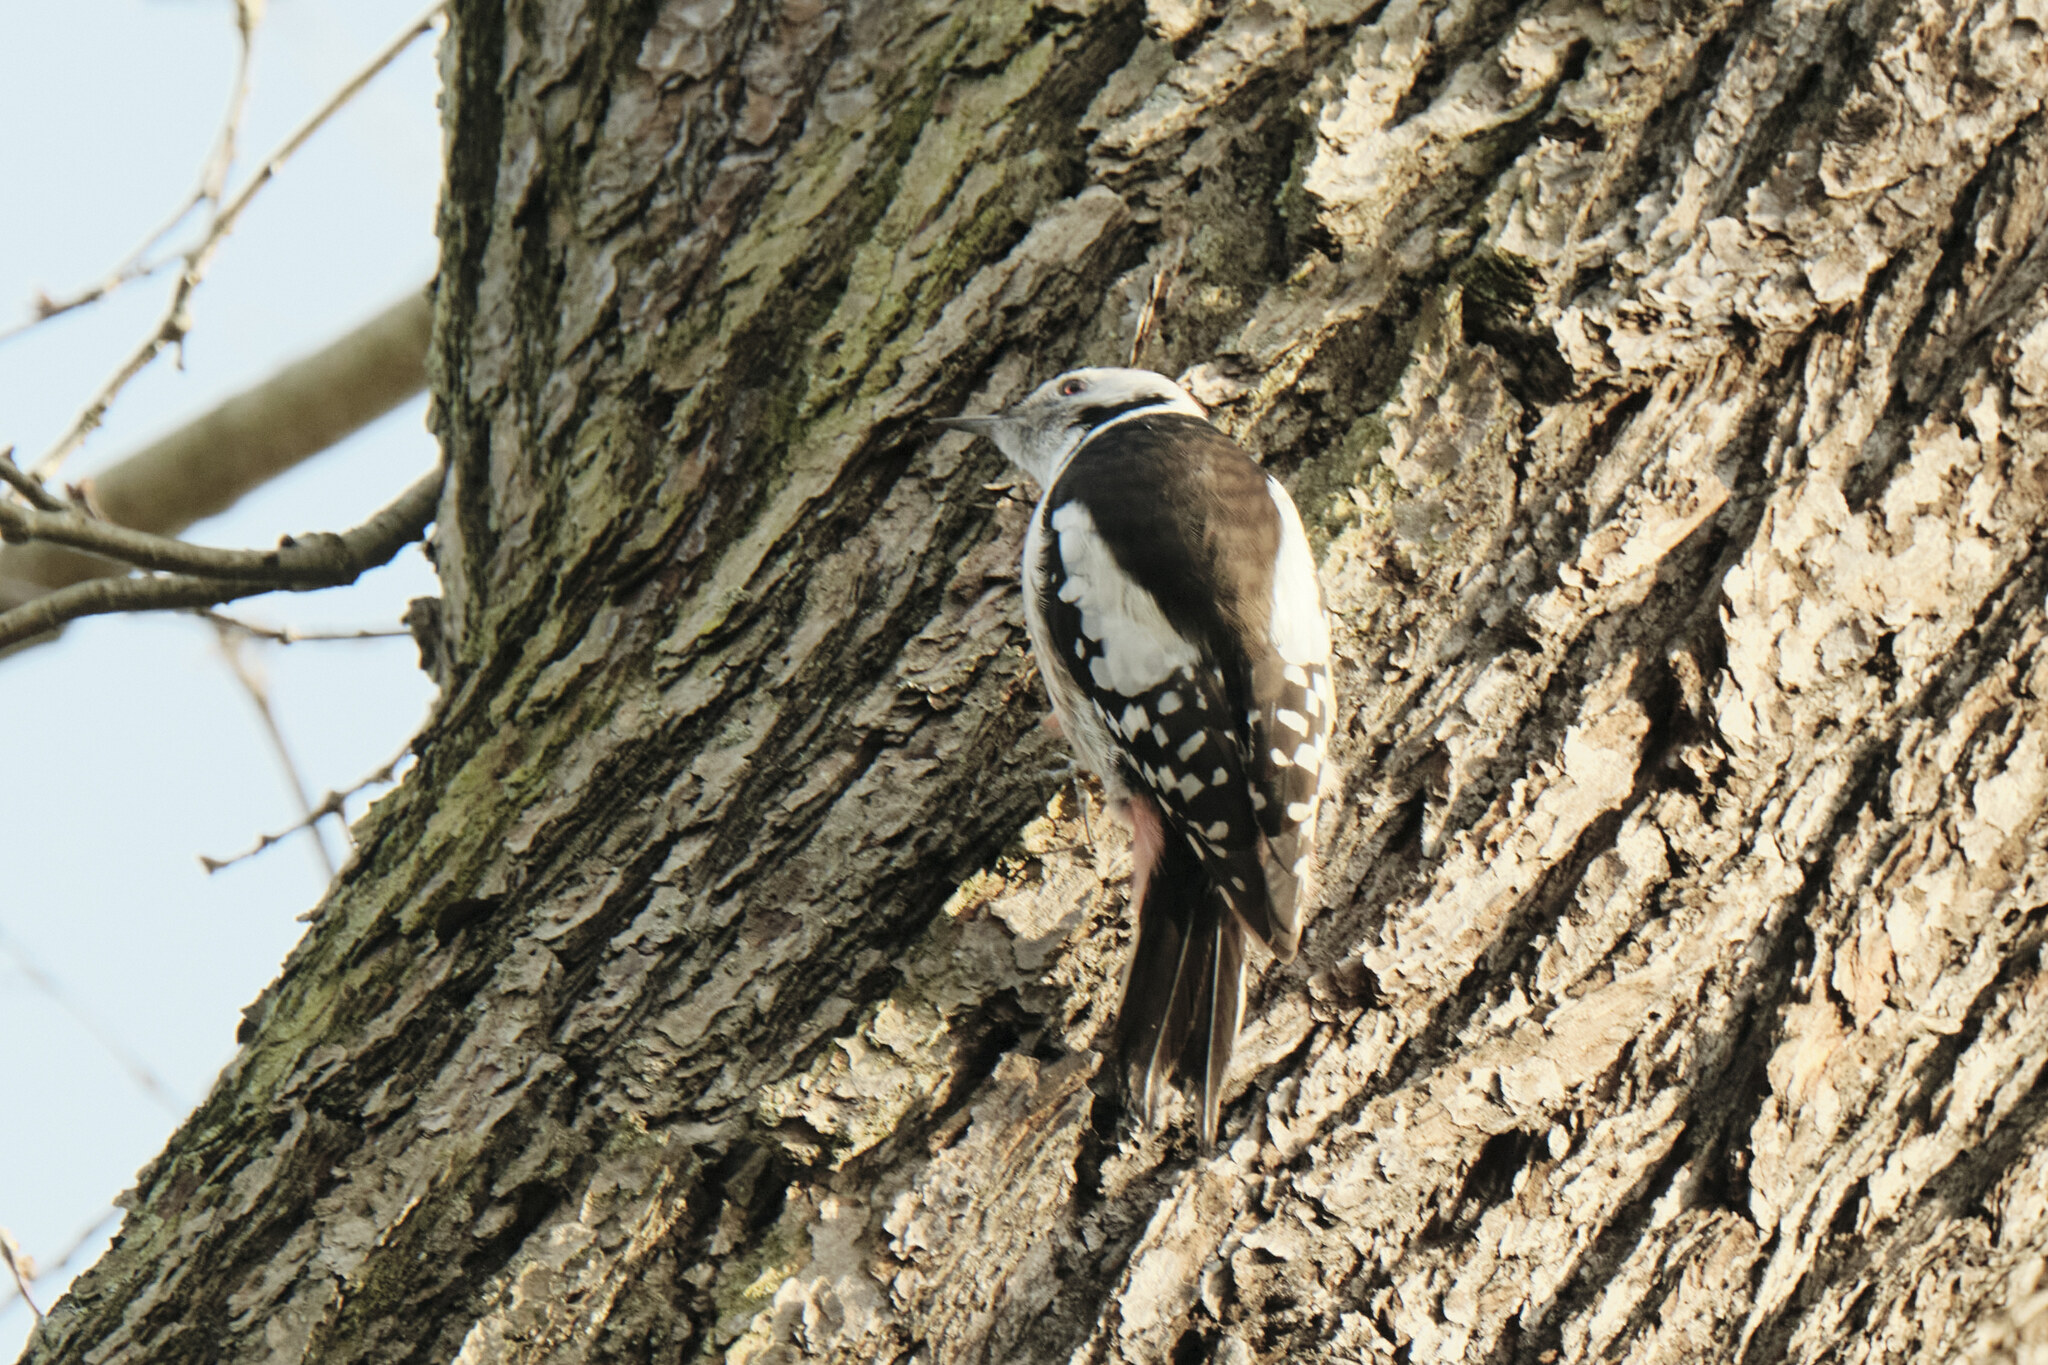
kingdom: Animalia
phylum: Chordata
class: Aves
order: Piciformes
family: Picidae
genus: Dendrocoptes
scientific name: Dendrocoptes medius
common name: Middle spotted woodpecker
